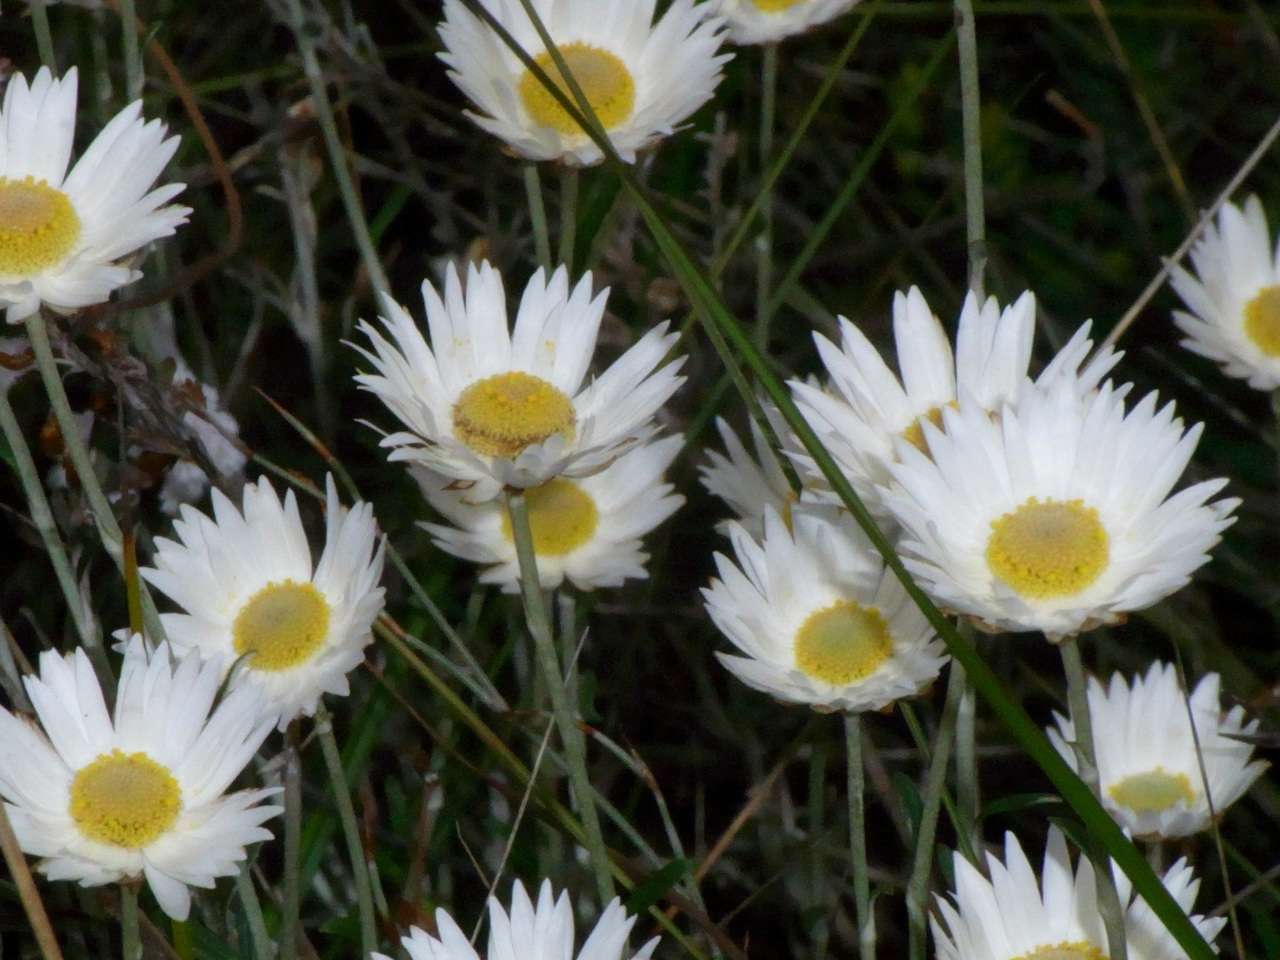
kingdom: Plantae
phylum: Tracheophyta
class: Magnoliopsida
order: Asterales
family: Asteraceae
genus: Argentipallium
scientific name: Argentipallium obtusifolium
